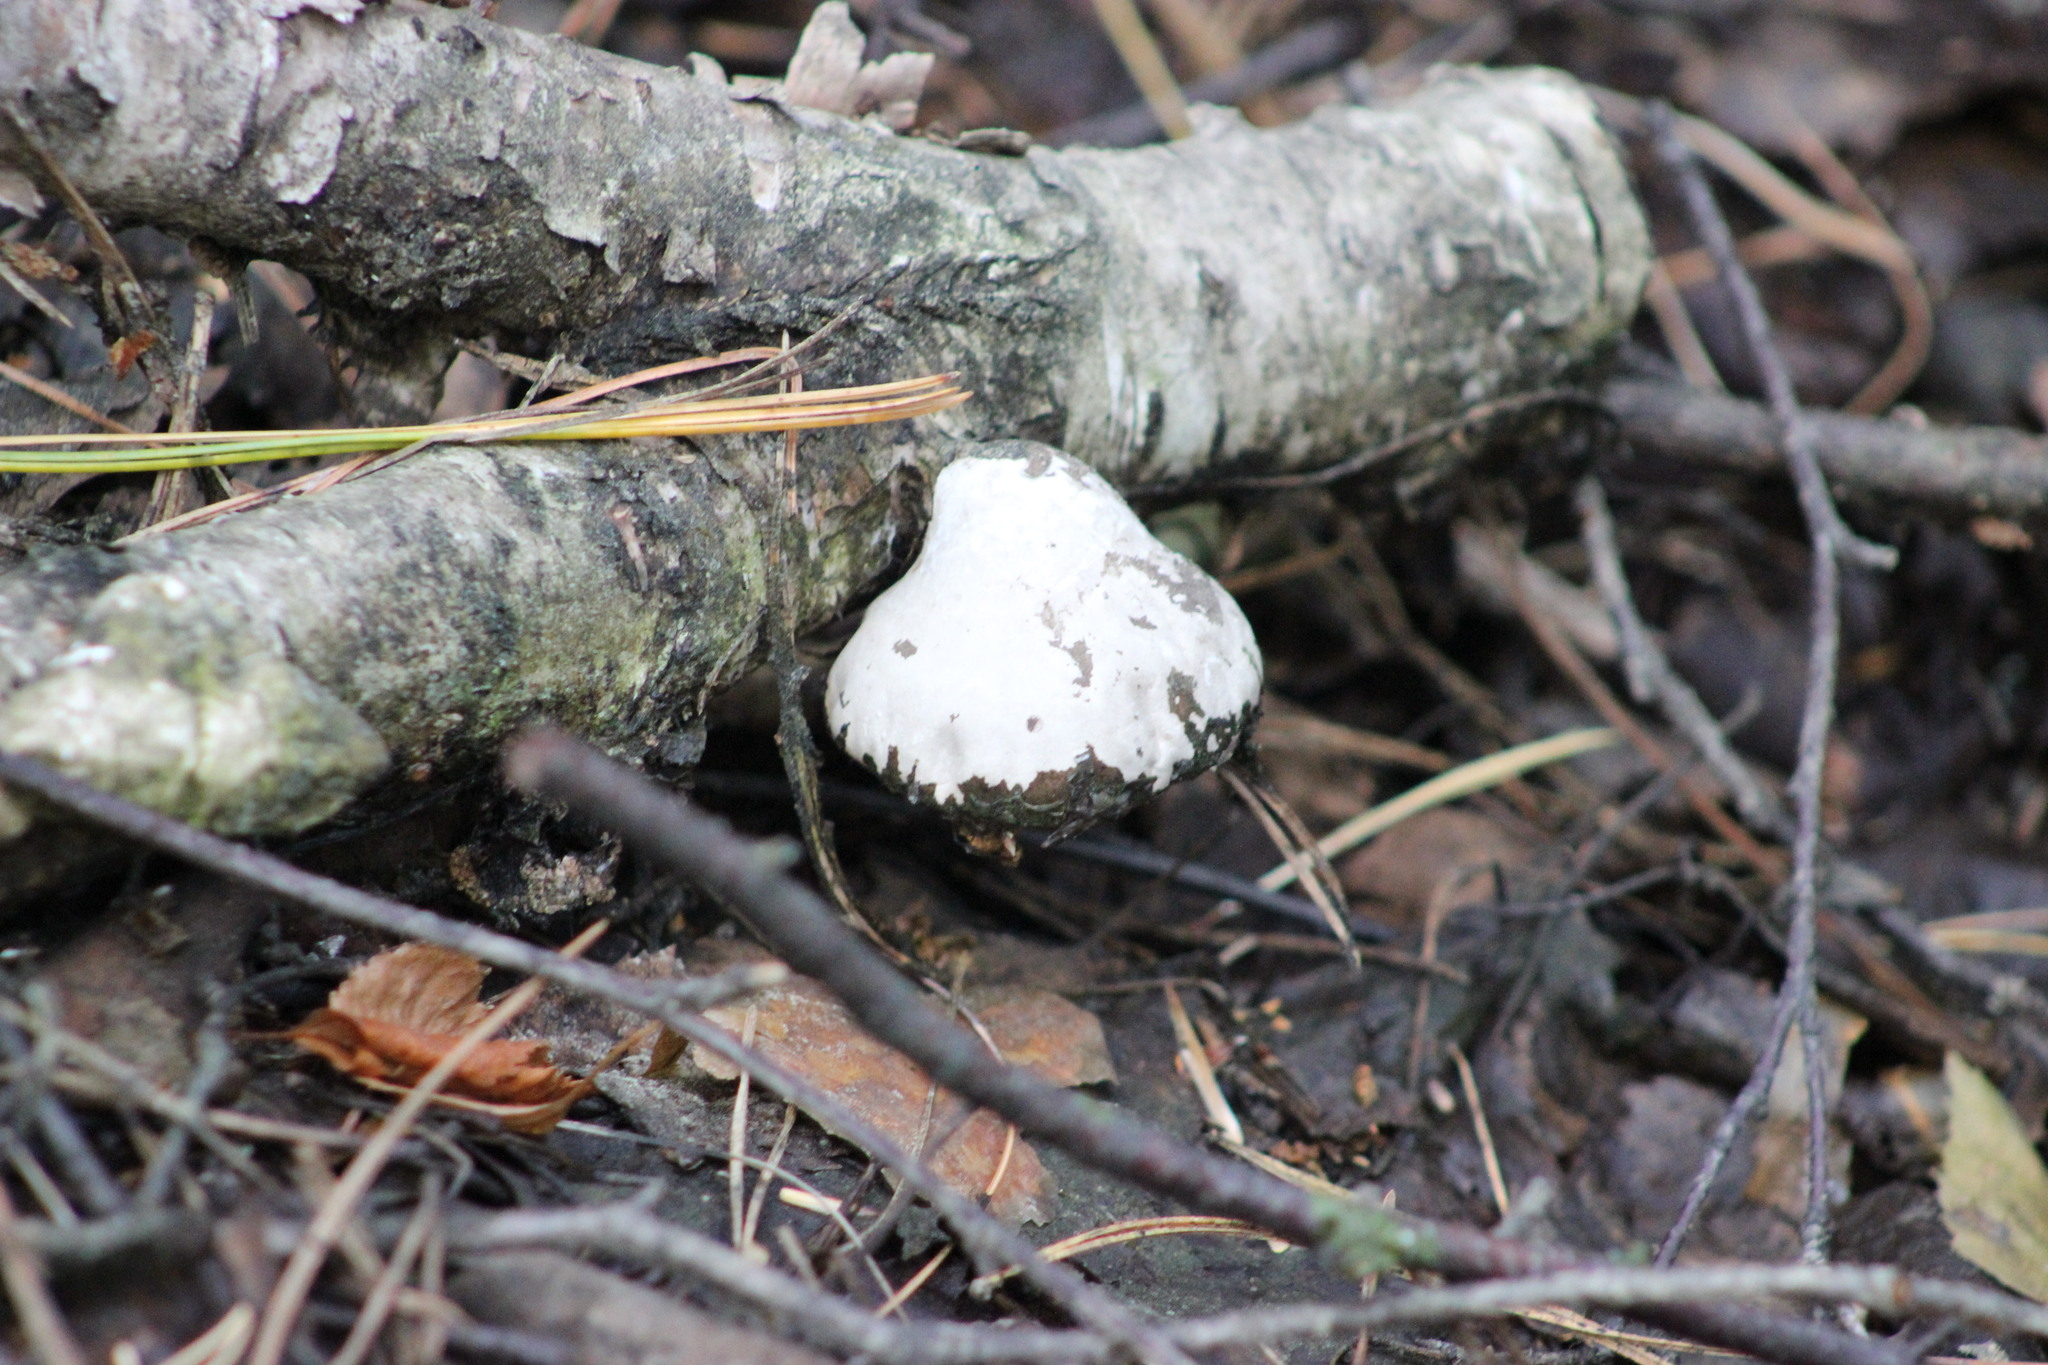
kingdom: Fungi
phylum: Basidiomycota
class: Agaricomycetes
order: Polyporales
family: Fomitopsidaceae
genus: Fomitopsis
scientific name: Fomitopsis betulina
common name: Birch polypore
